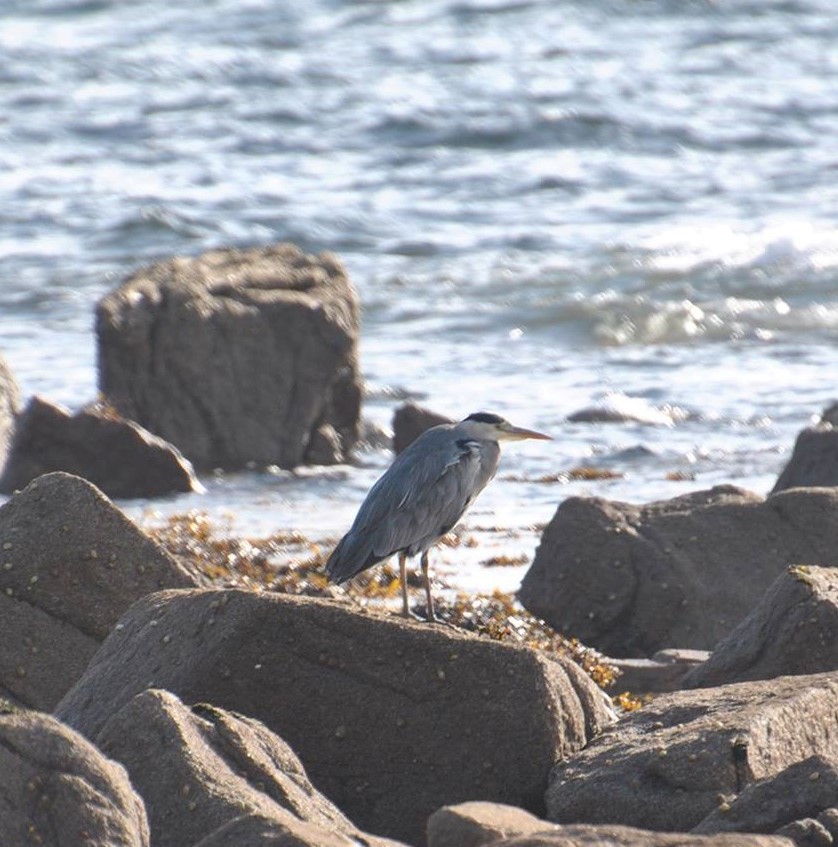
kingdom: Animalia
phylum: Chordata
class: Aves
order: Pelecaniformes
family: Ardeidae
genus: Ardea
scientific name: Ardea cinerea
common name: Grey heron
